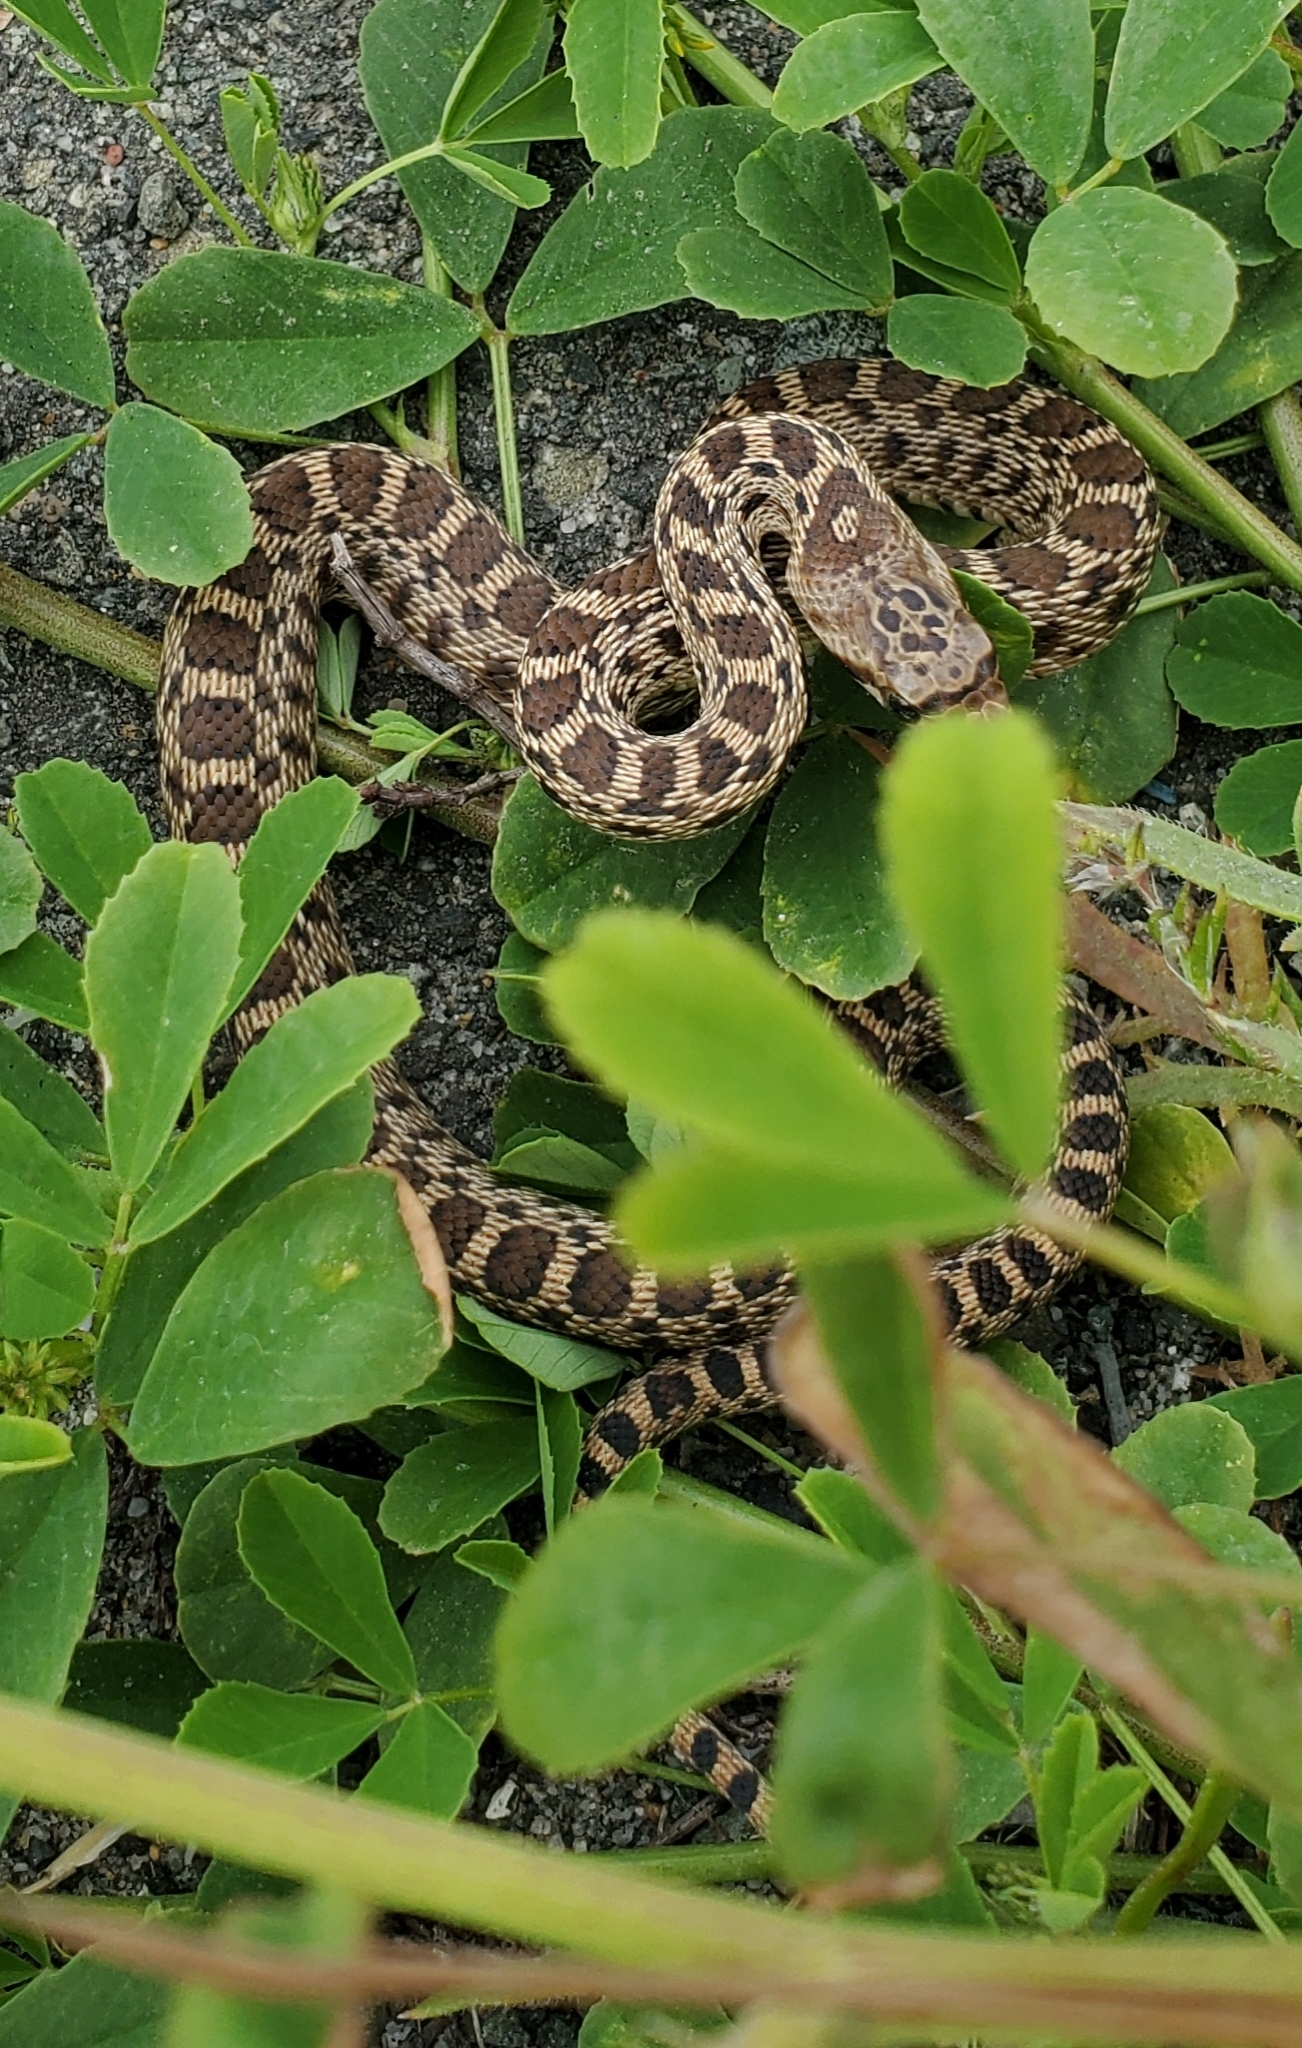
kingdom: Animalia
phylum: Chordata
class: Squamata
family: Colubridae
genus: Pituophis
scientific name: Pituophis catenifer
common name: Gopher snake
